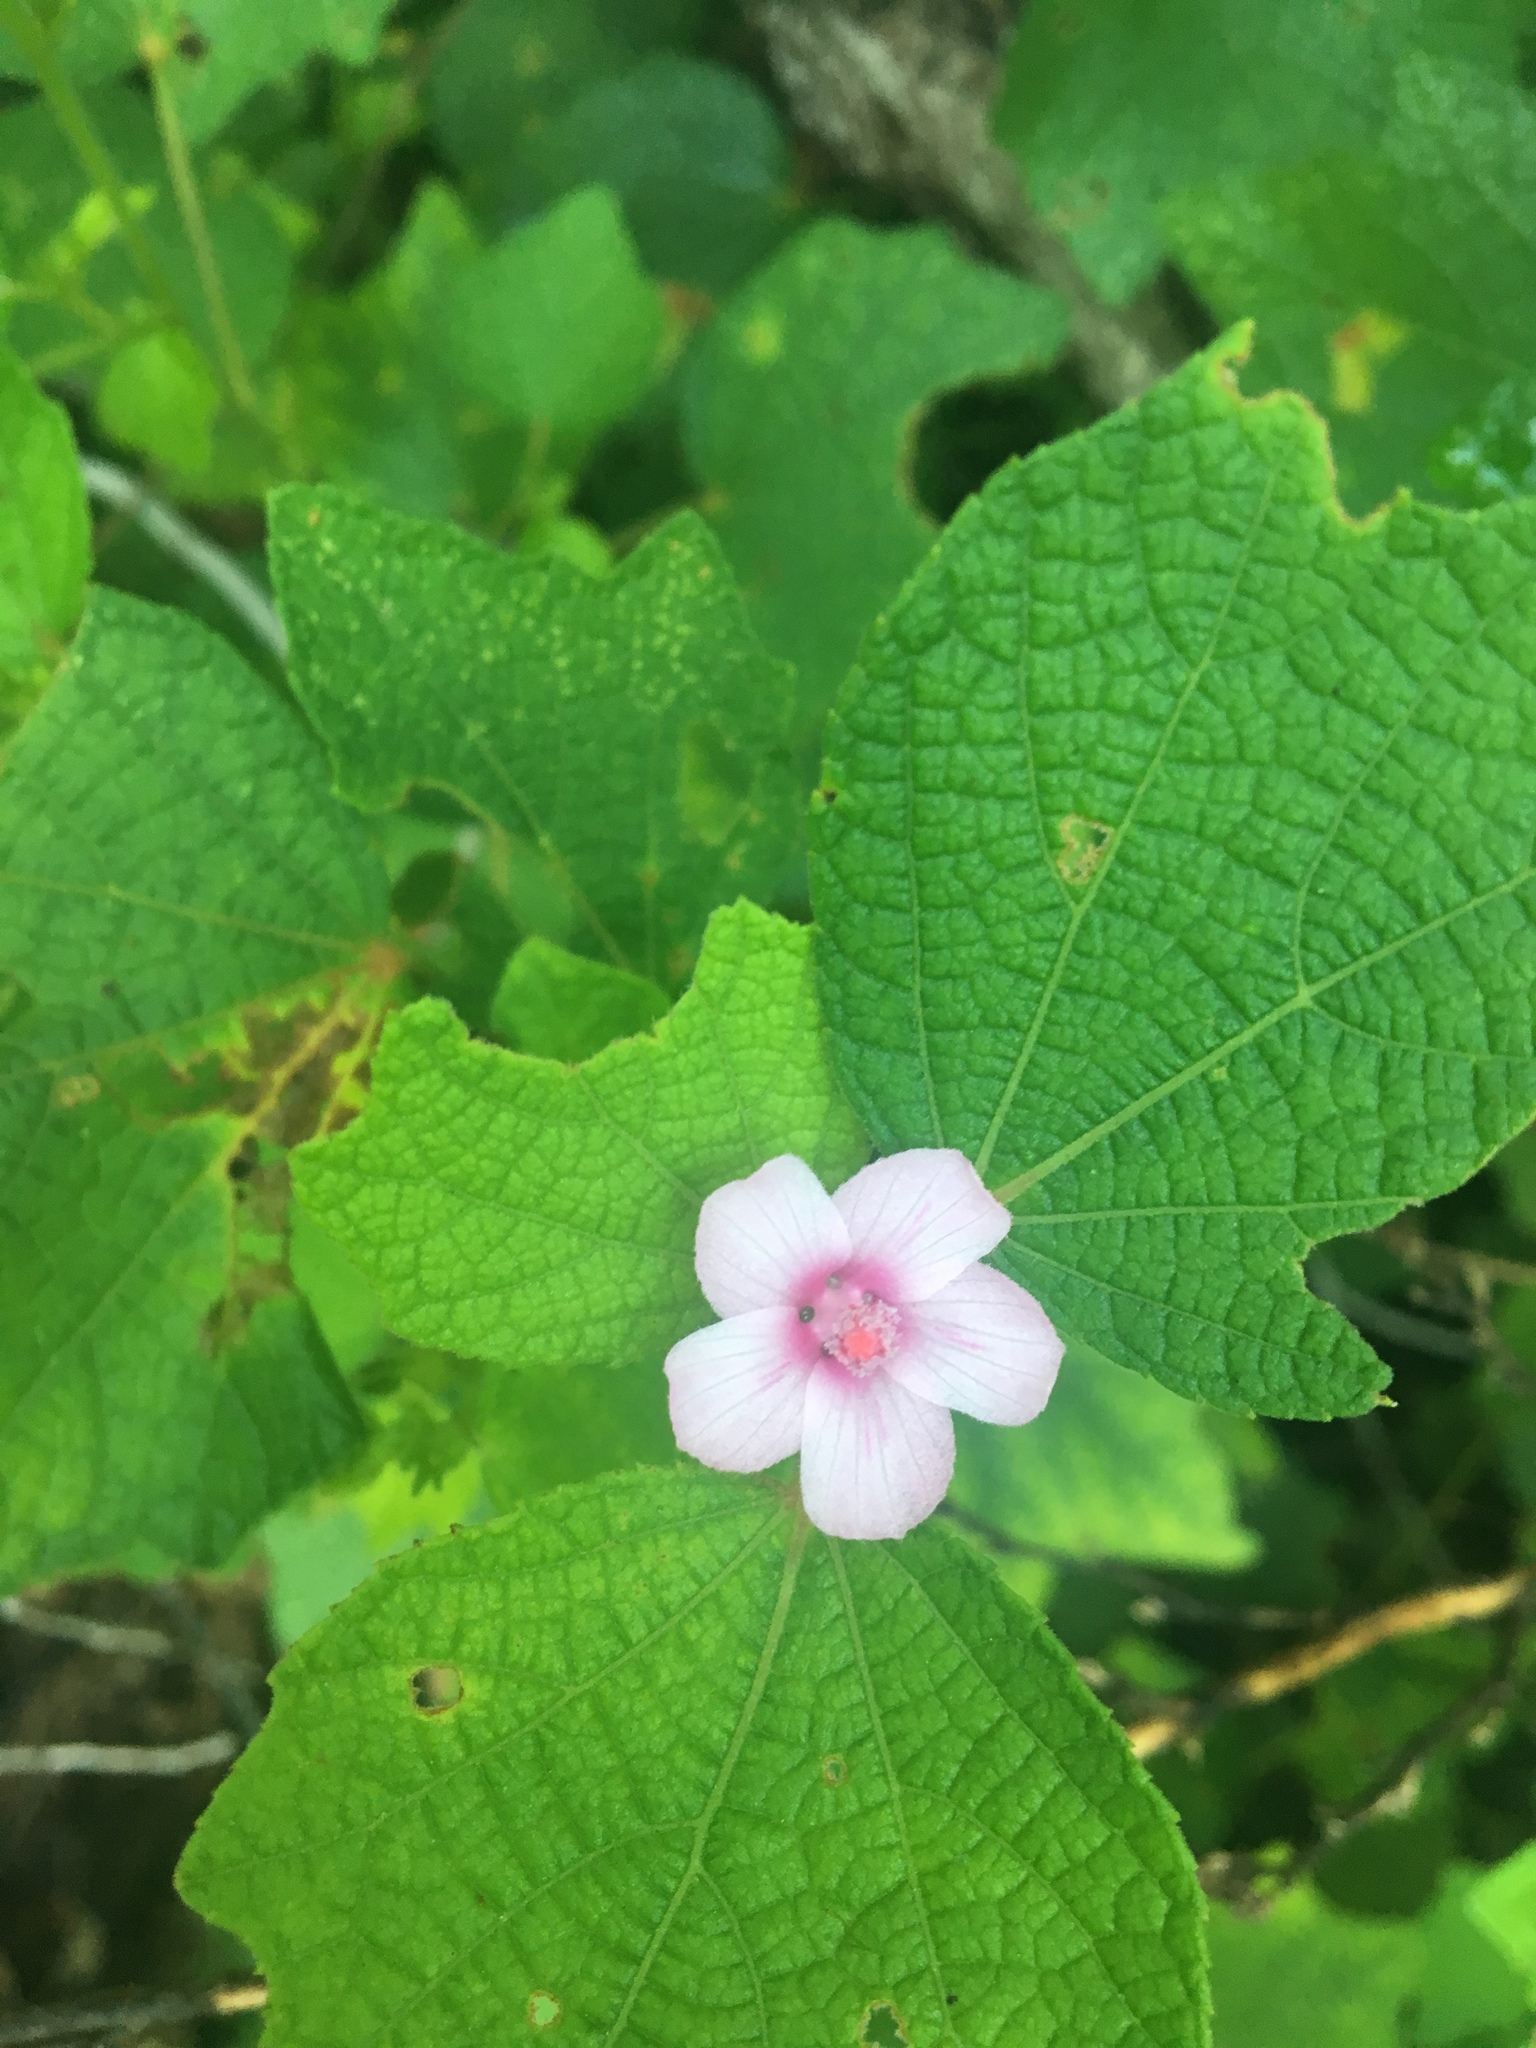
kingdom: Plantae
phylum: Tracheophyta
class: Magnoliopsida
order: Malvales
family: Malvaceae
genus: Urena
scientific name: Urena lobata
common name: Caesarweed
